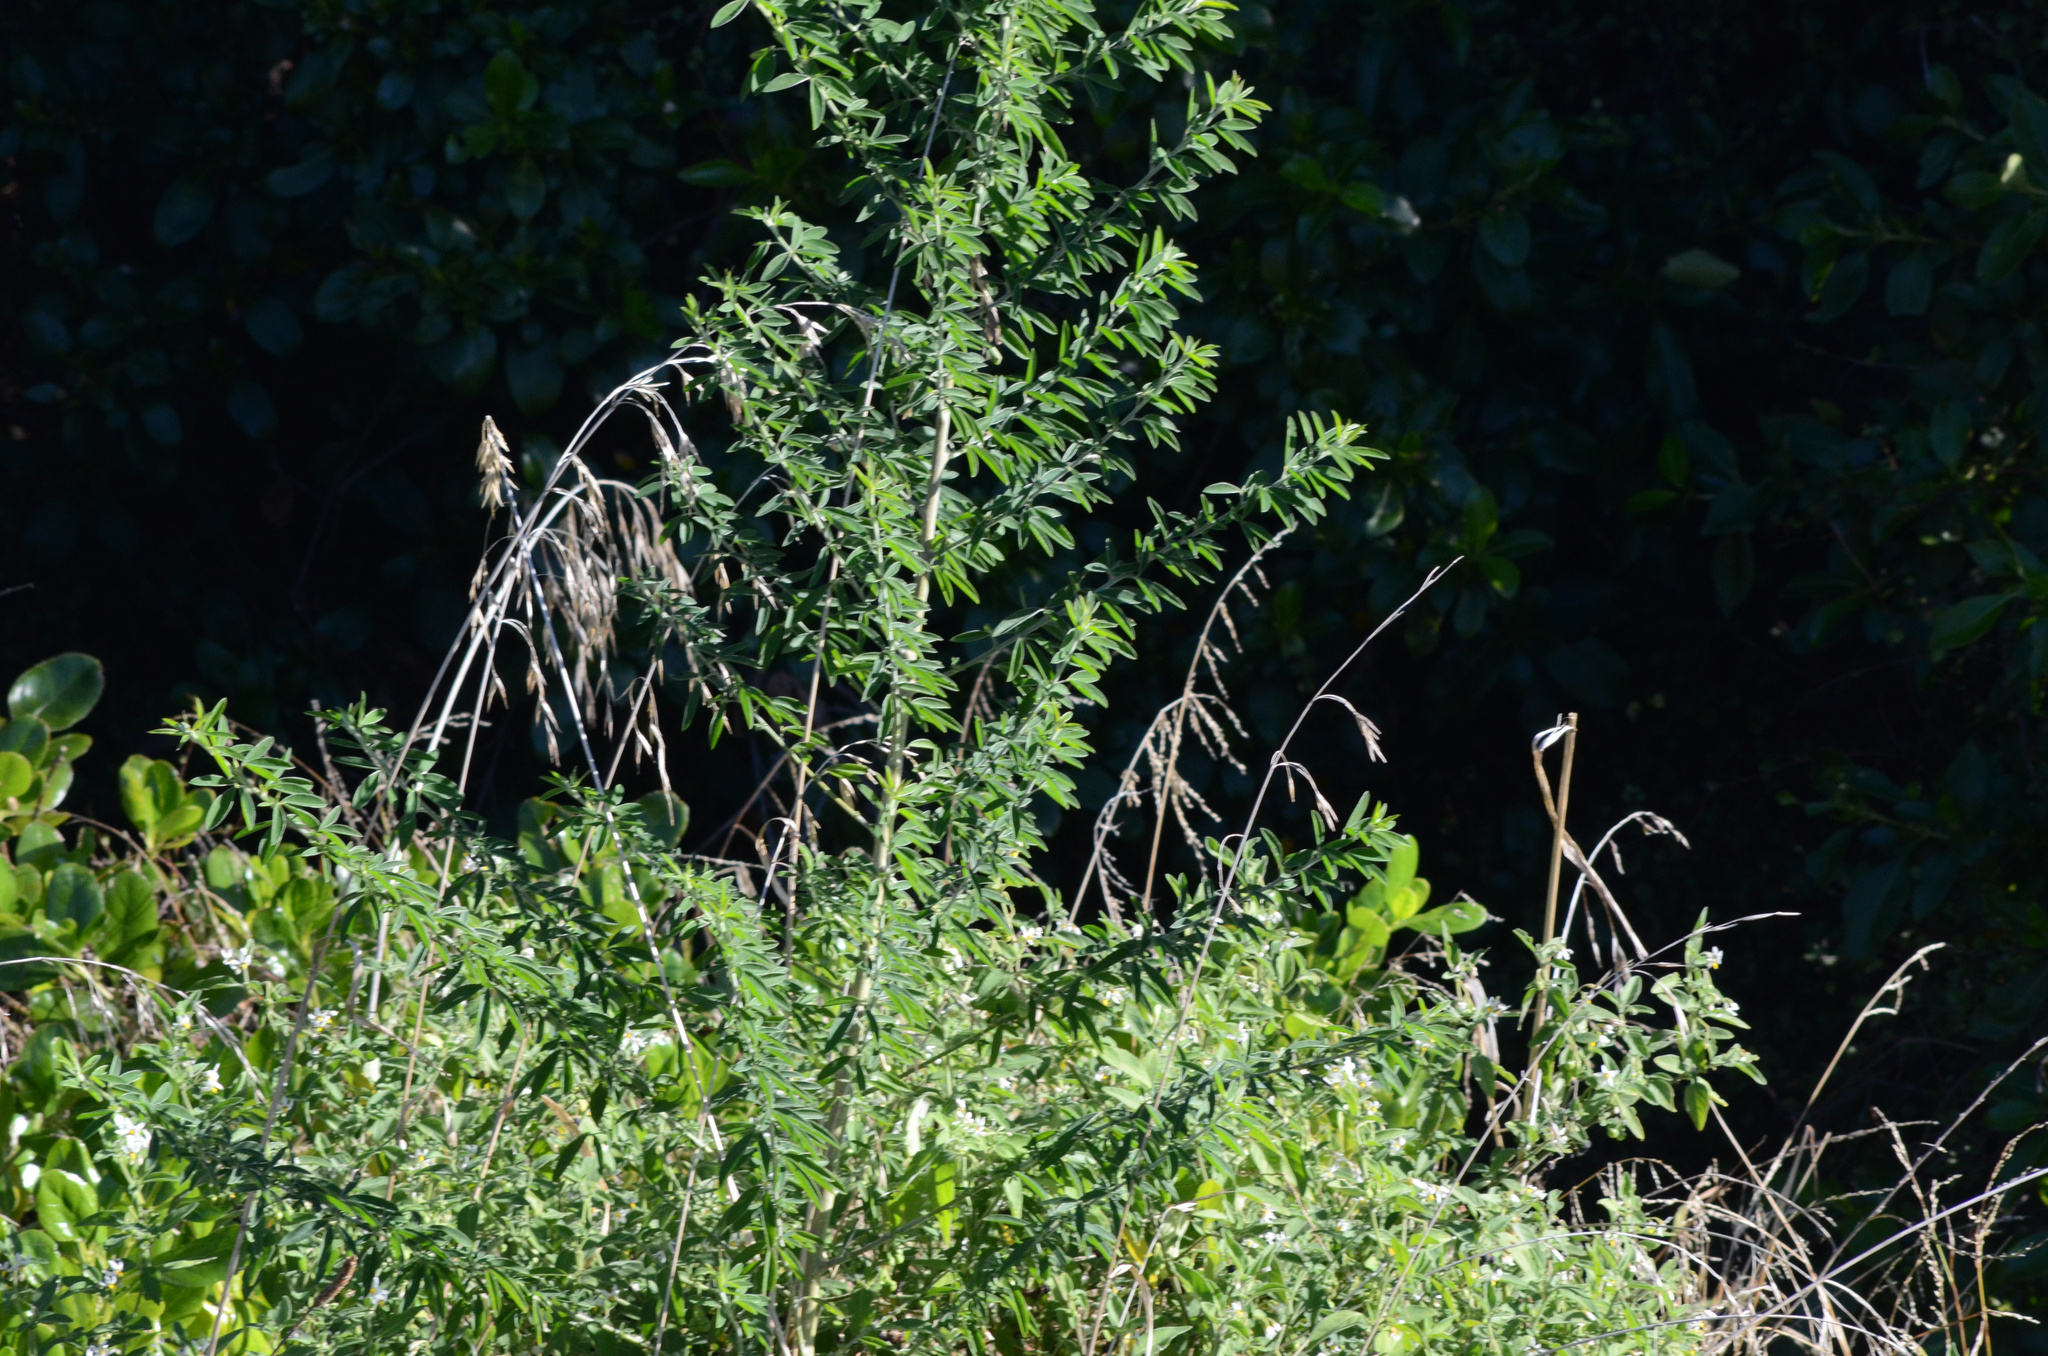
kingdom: Plantae
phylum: Tracheophyta
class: Magnoliopsida
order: Fabales
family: Fabaceae
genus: Chamaecytisus
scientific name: Chamaecytisus prolifer
